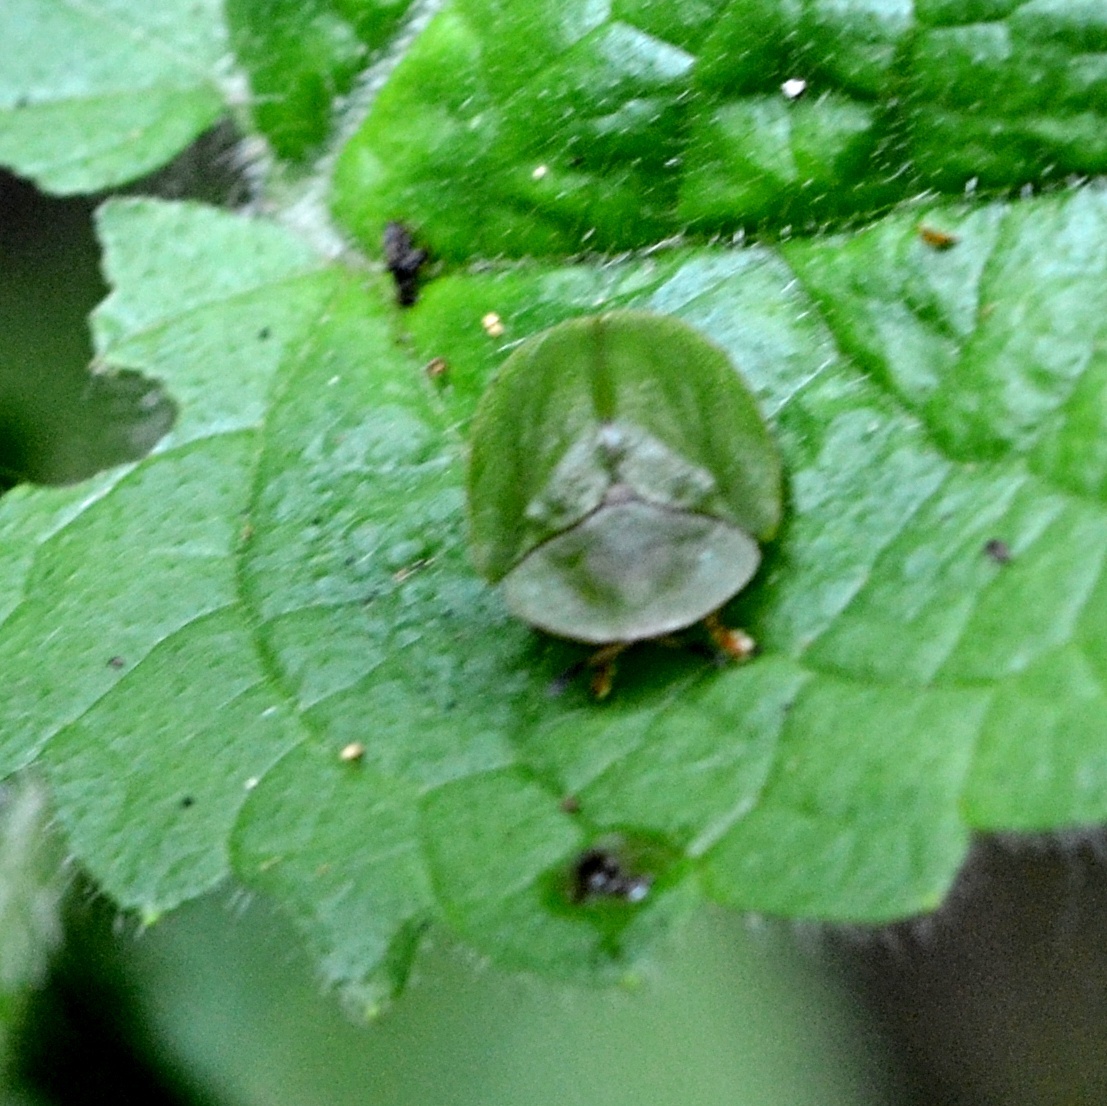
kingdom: Animalia
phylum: Arthropoda
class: Insecta
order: Coleoptera
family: Chrysomelidae
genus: Cassida
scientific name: Cassida viridis
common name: Green tortoise beetle
